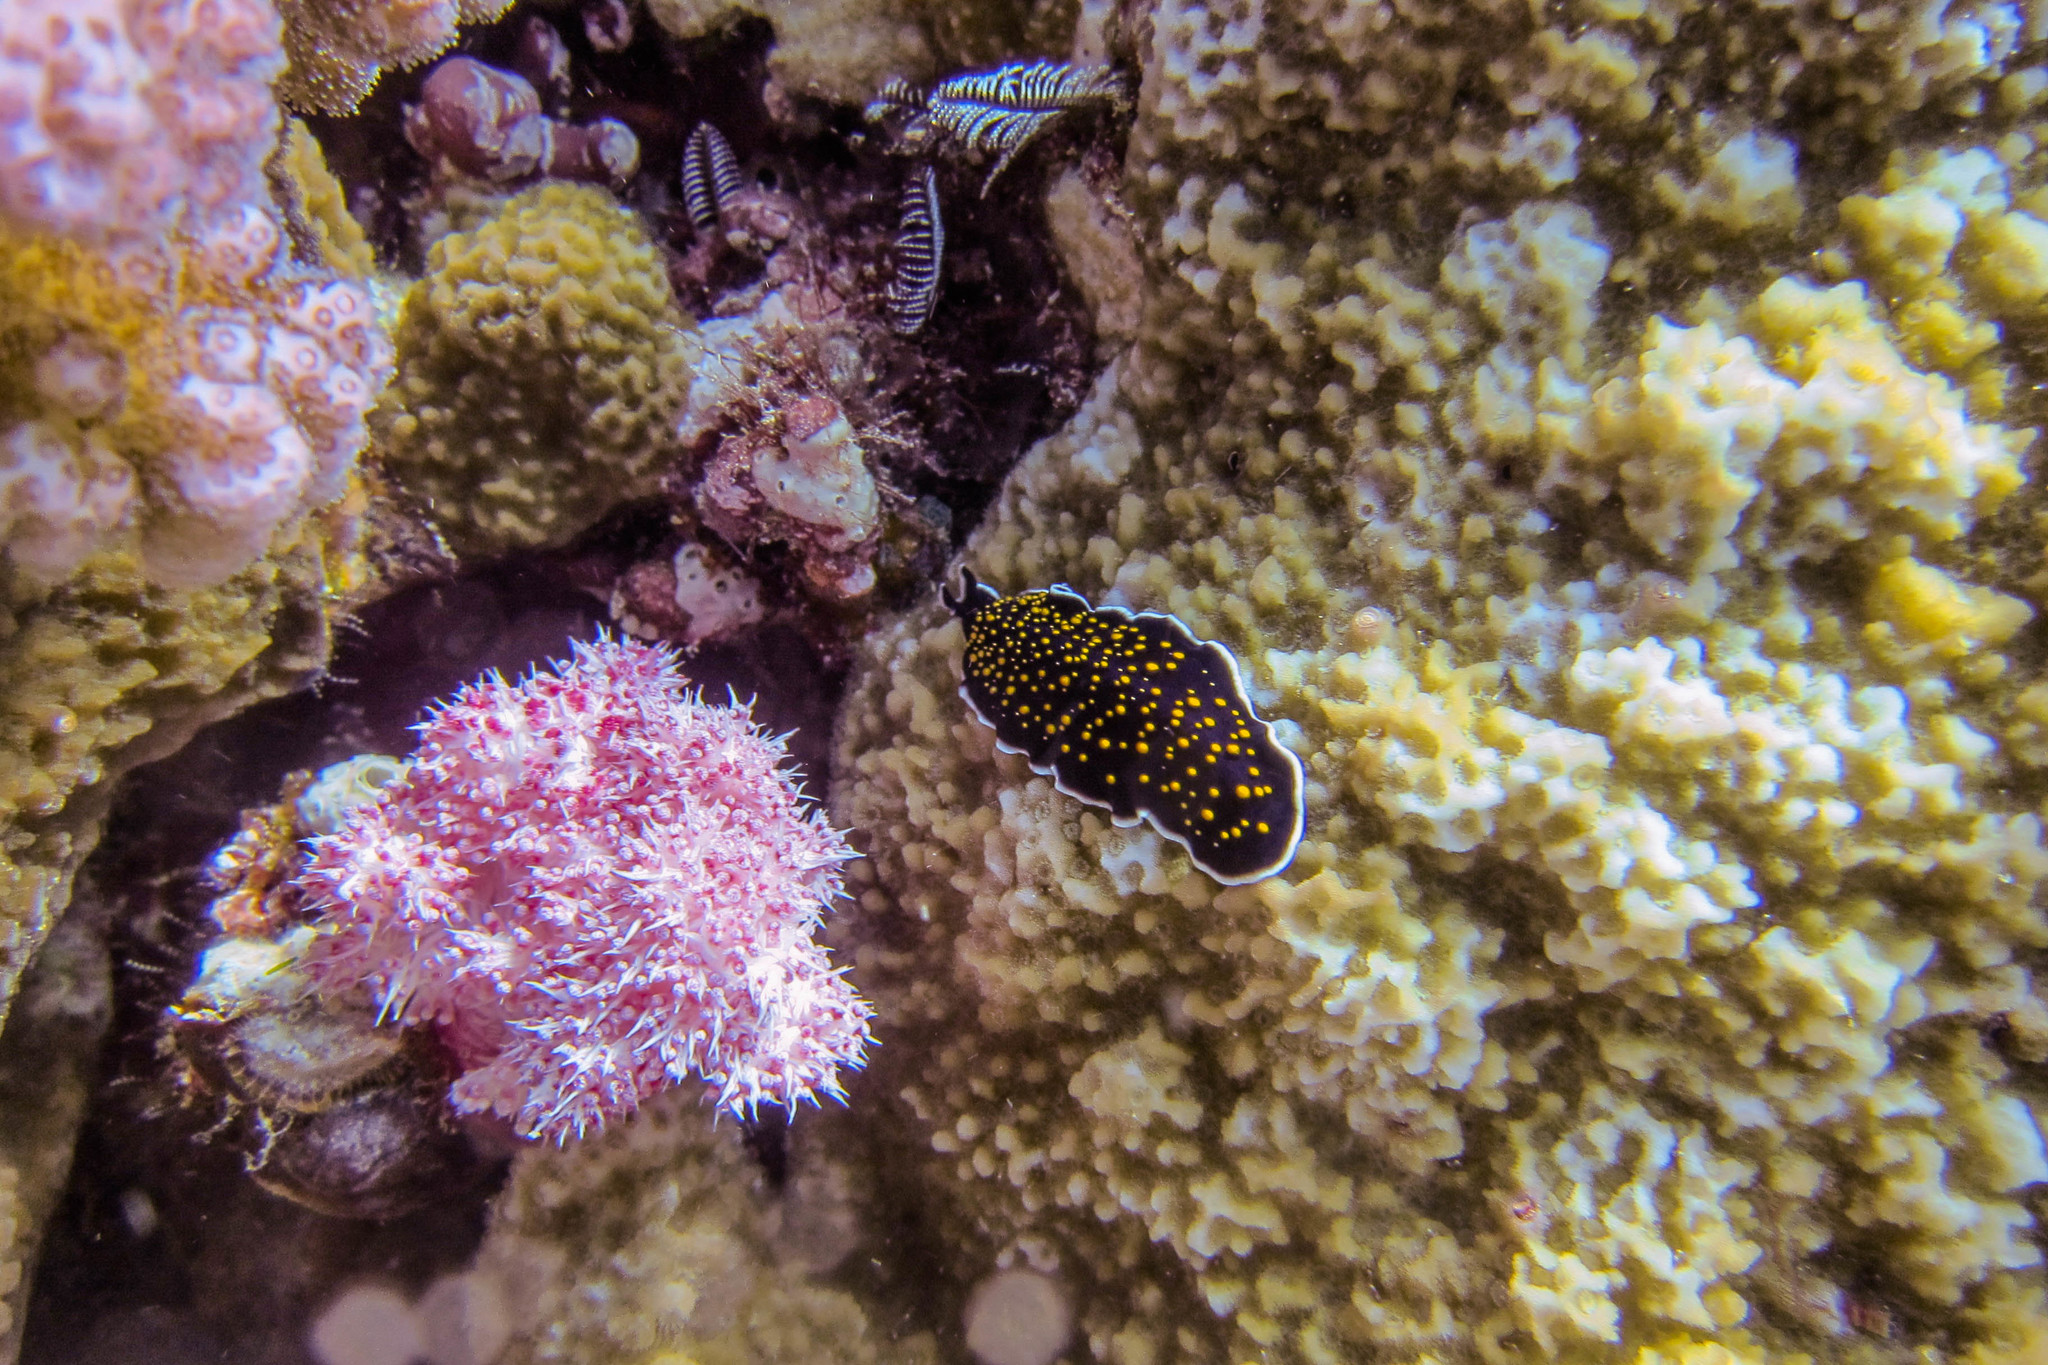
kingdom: Animalia
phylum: Platyhelminthes
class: Turbellaria
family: Pseudocerotidae
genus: Thysanozoon
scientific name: Thysanozoon nigropapillosum
